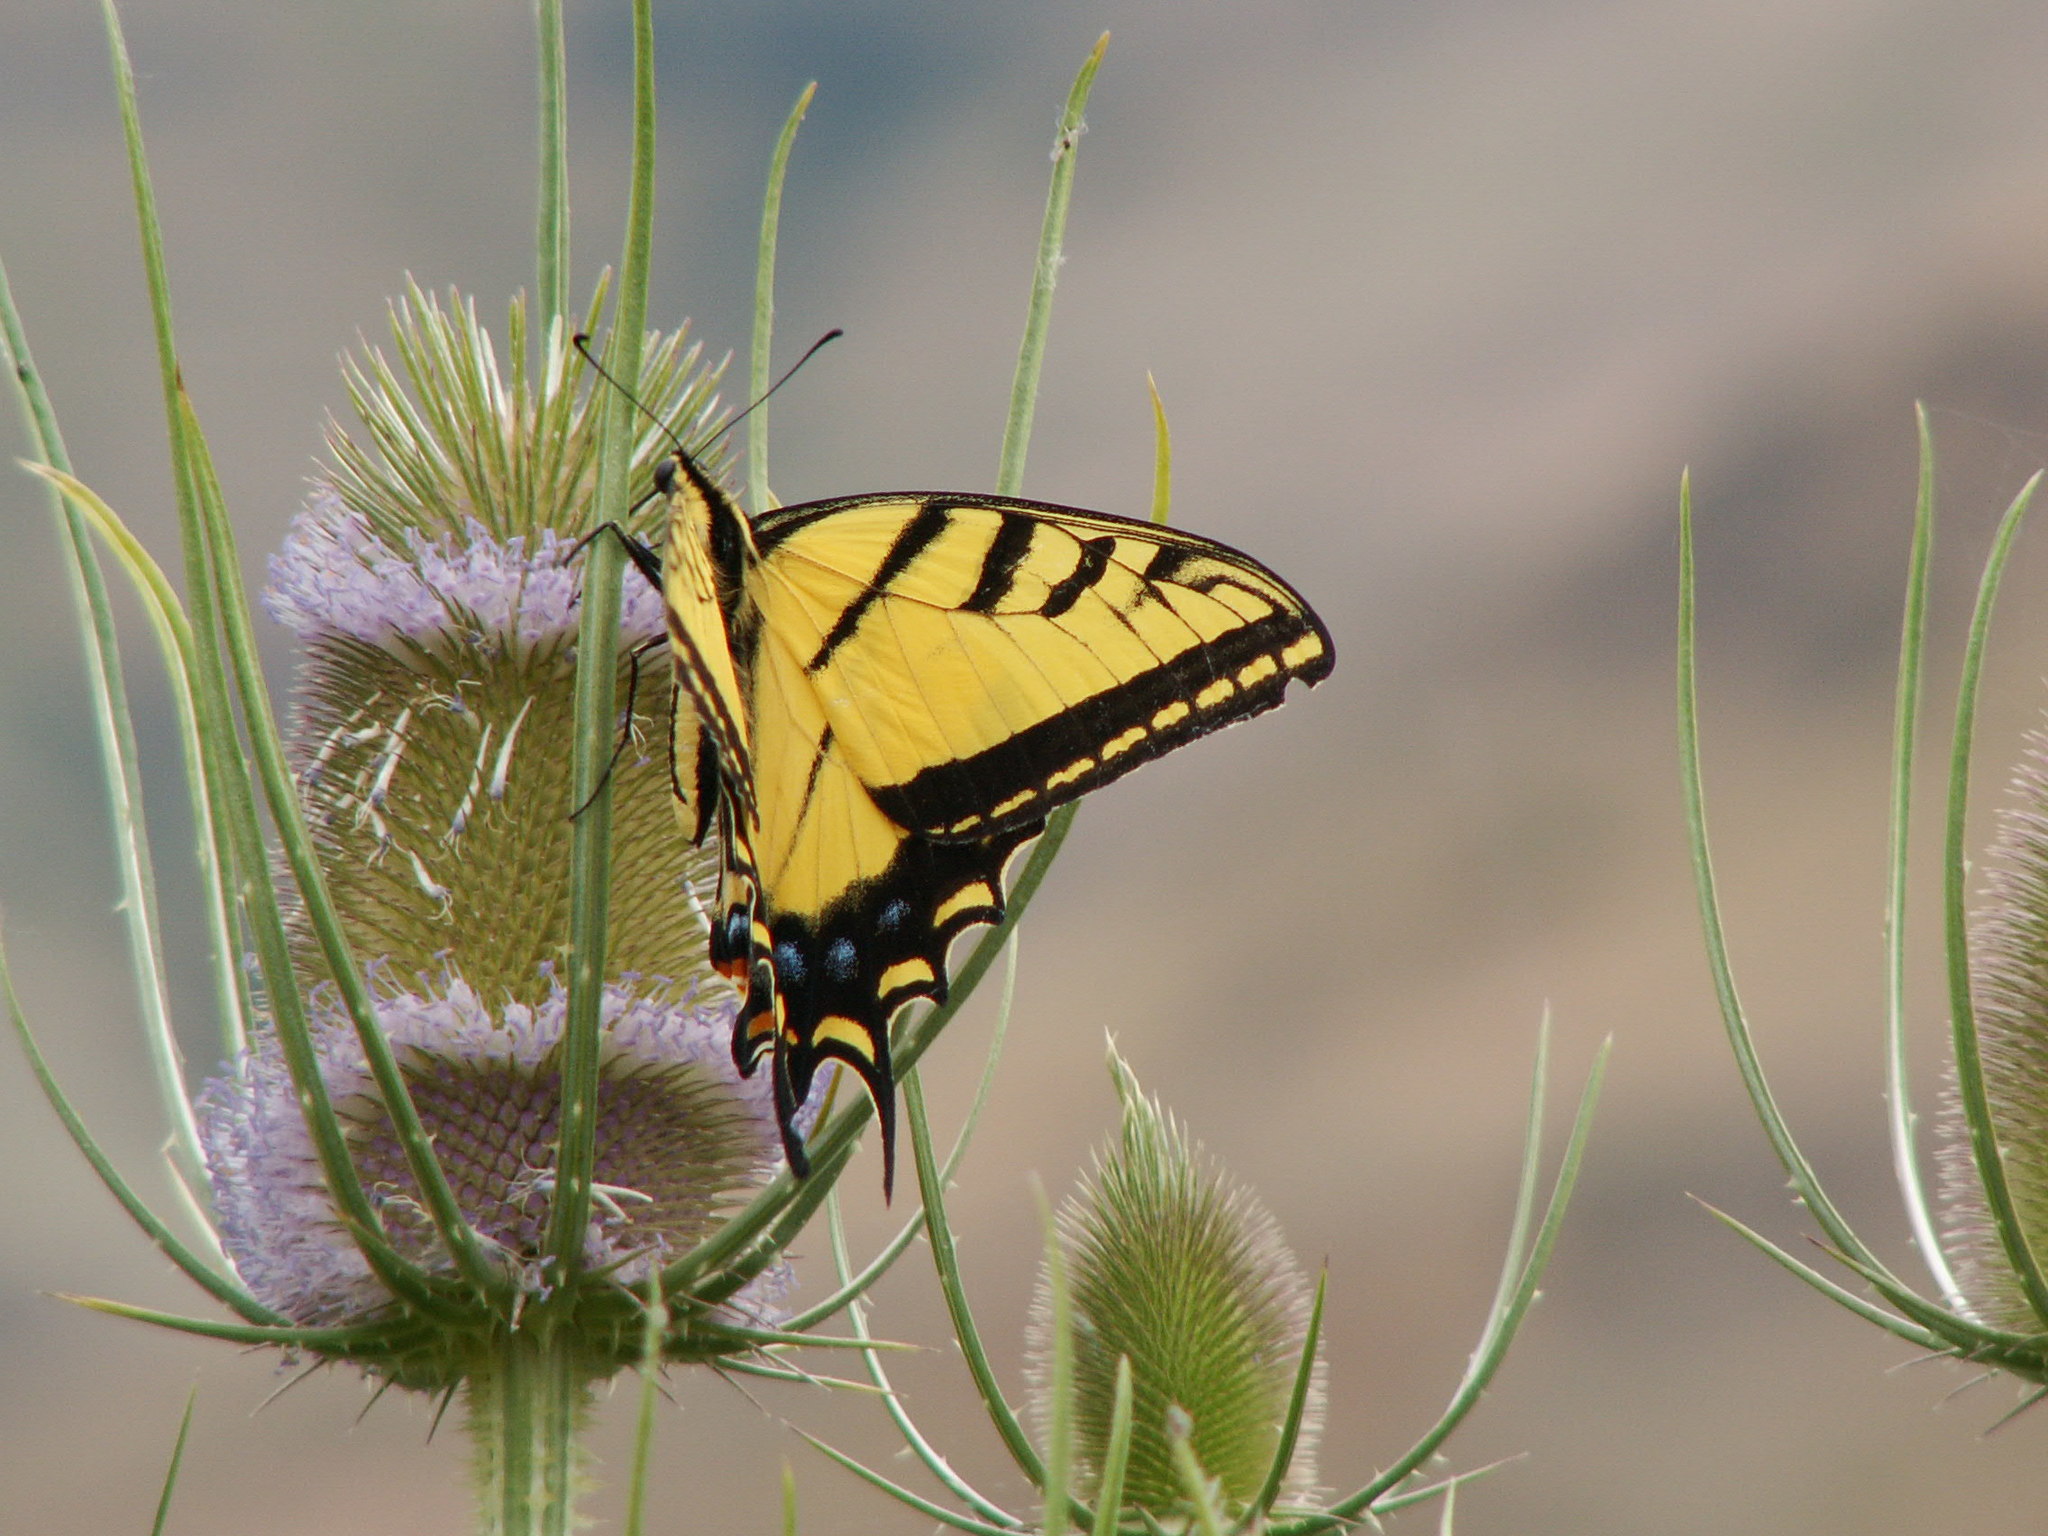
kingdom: Animalia
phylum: Arthropoda
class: Insecta
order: Lepidoptera
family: Papilionidae
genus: Papilio
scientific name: Papilio multicaudata
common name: Two-tailed tiger swallowtail
